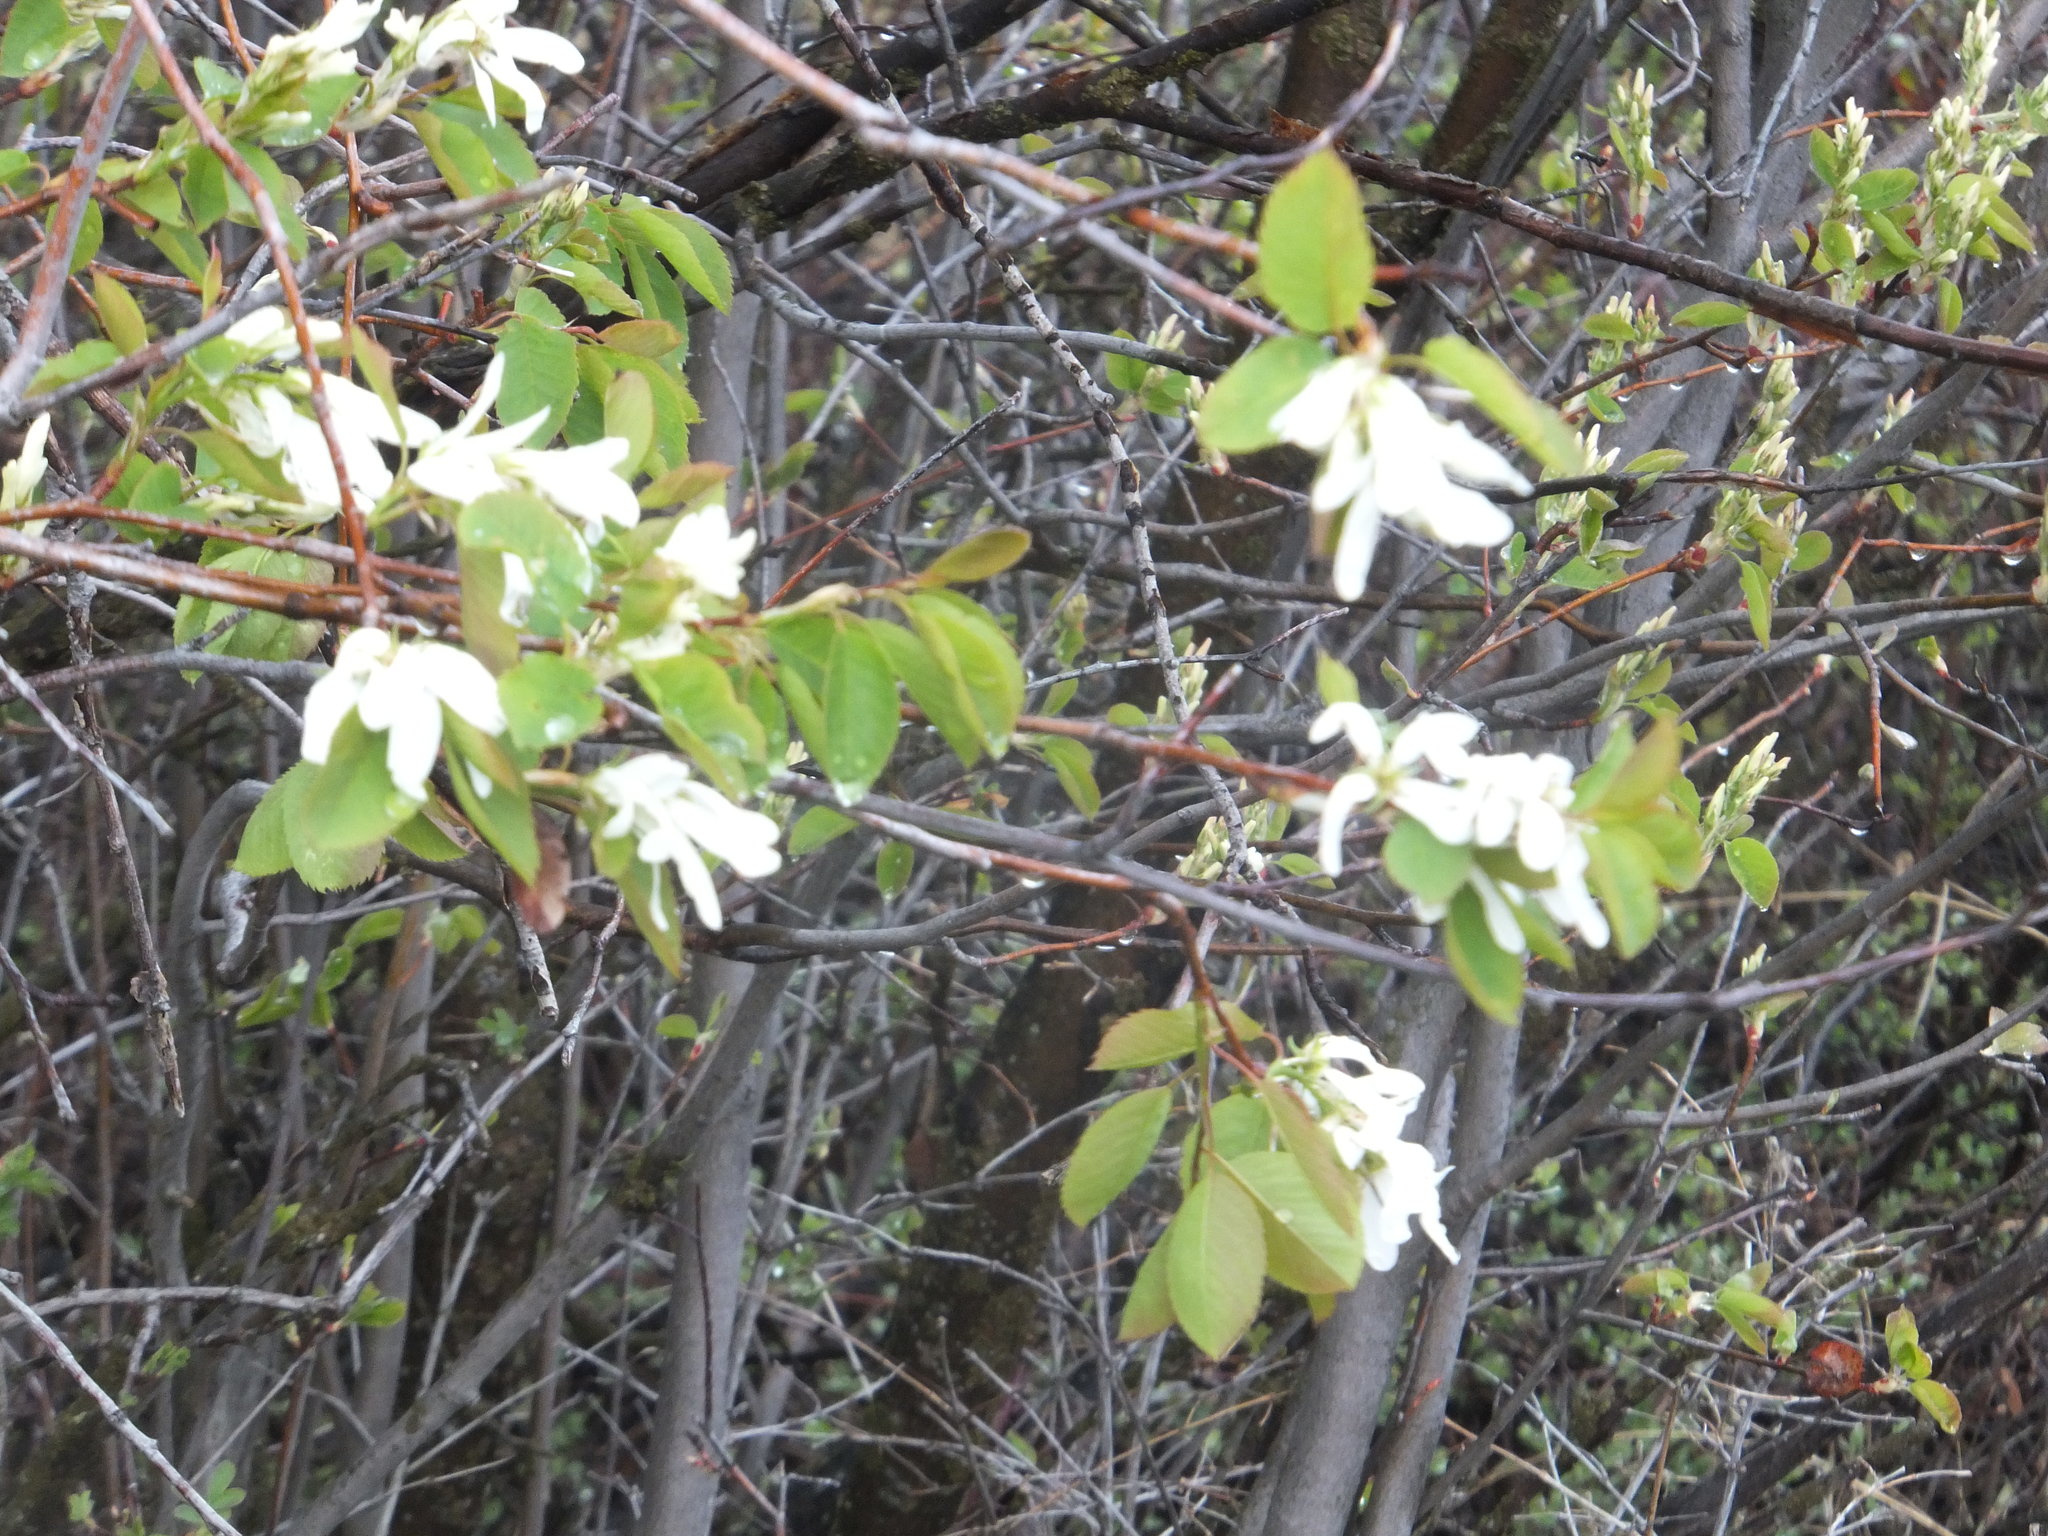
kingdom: Plantae
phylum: Tracheophyta
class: Magnoliopsida
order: Rosales
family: Rosaceae
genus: Amelanchier
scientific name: Amelanchier alnifolia
